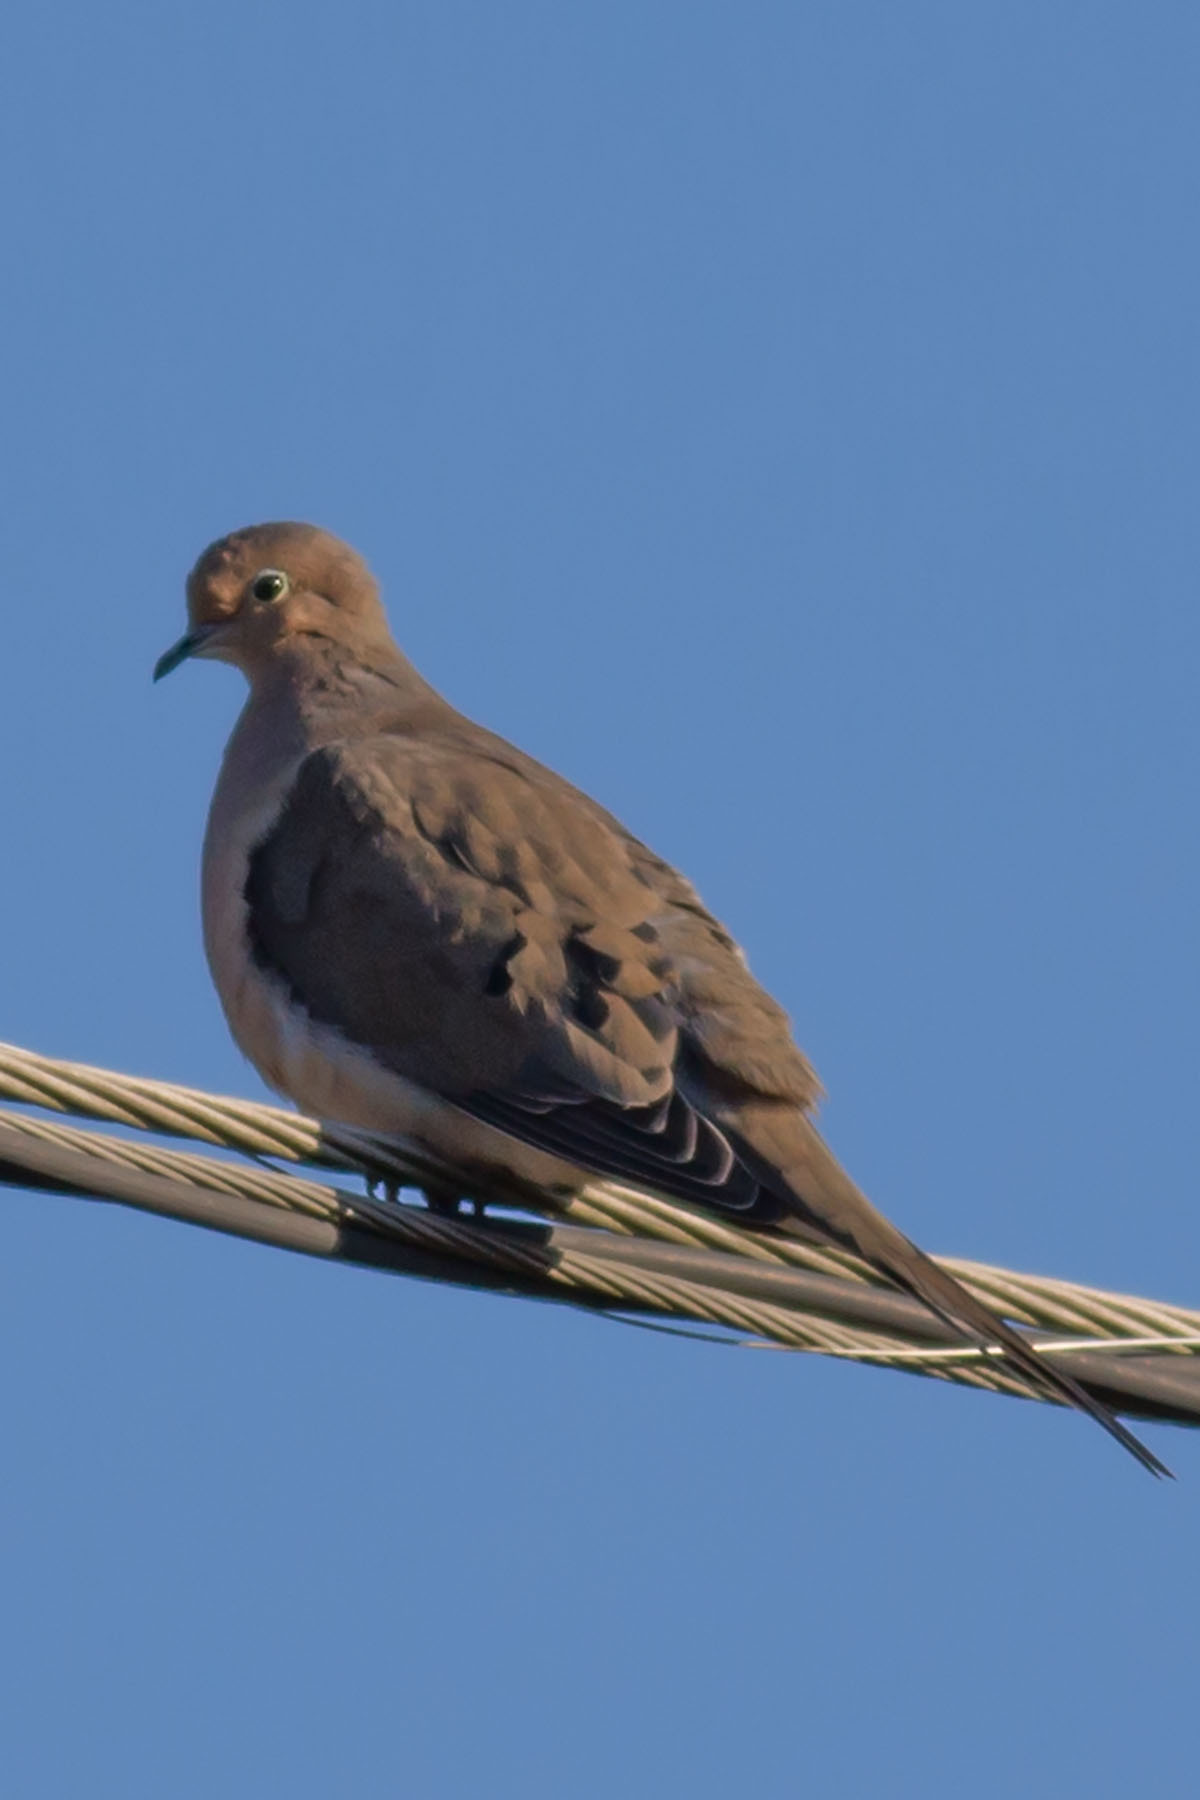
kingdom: Animalia
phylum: Chordata
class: Aves
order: Columbiformes
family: Columbidae
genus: Zenaida
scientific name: Zenaida macroura
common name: Mourning dove
